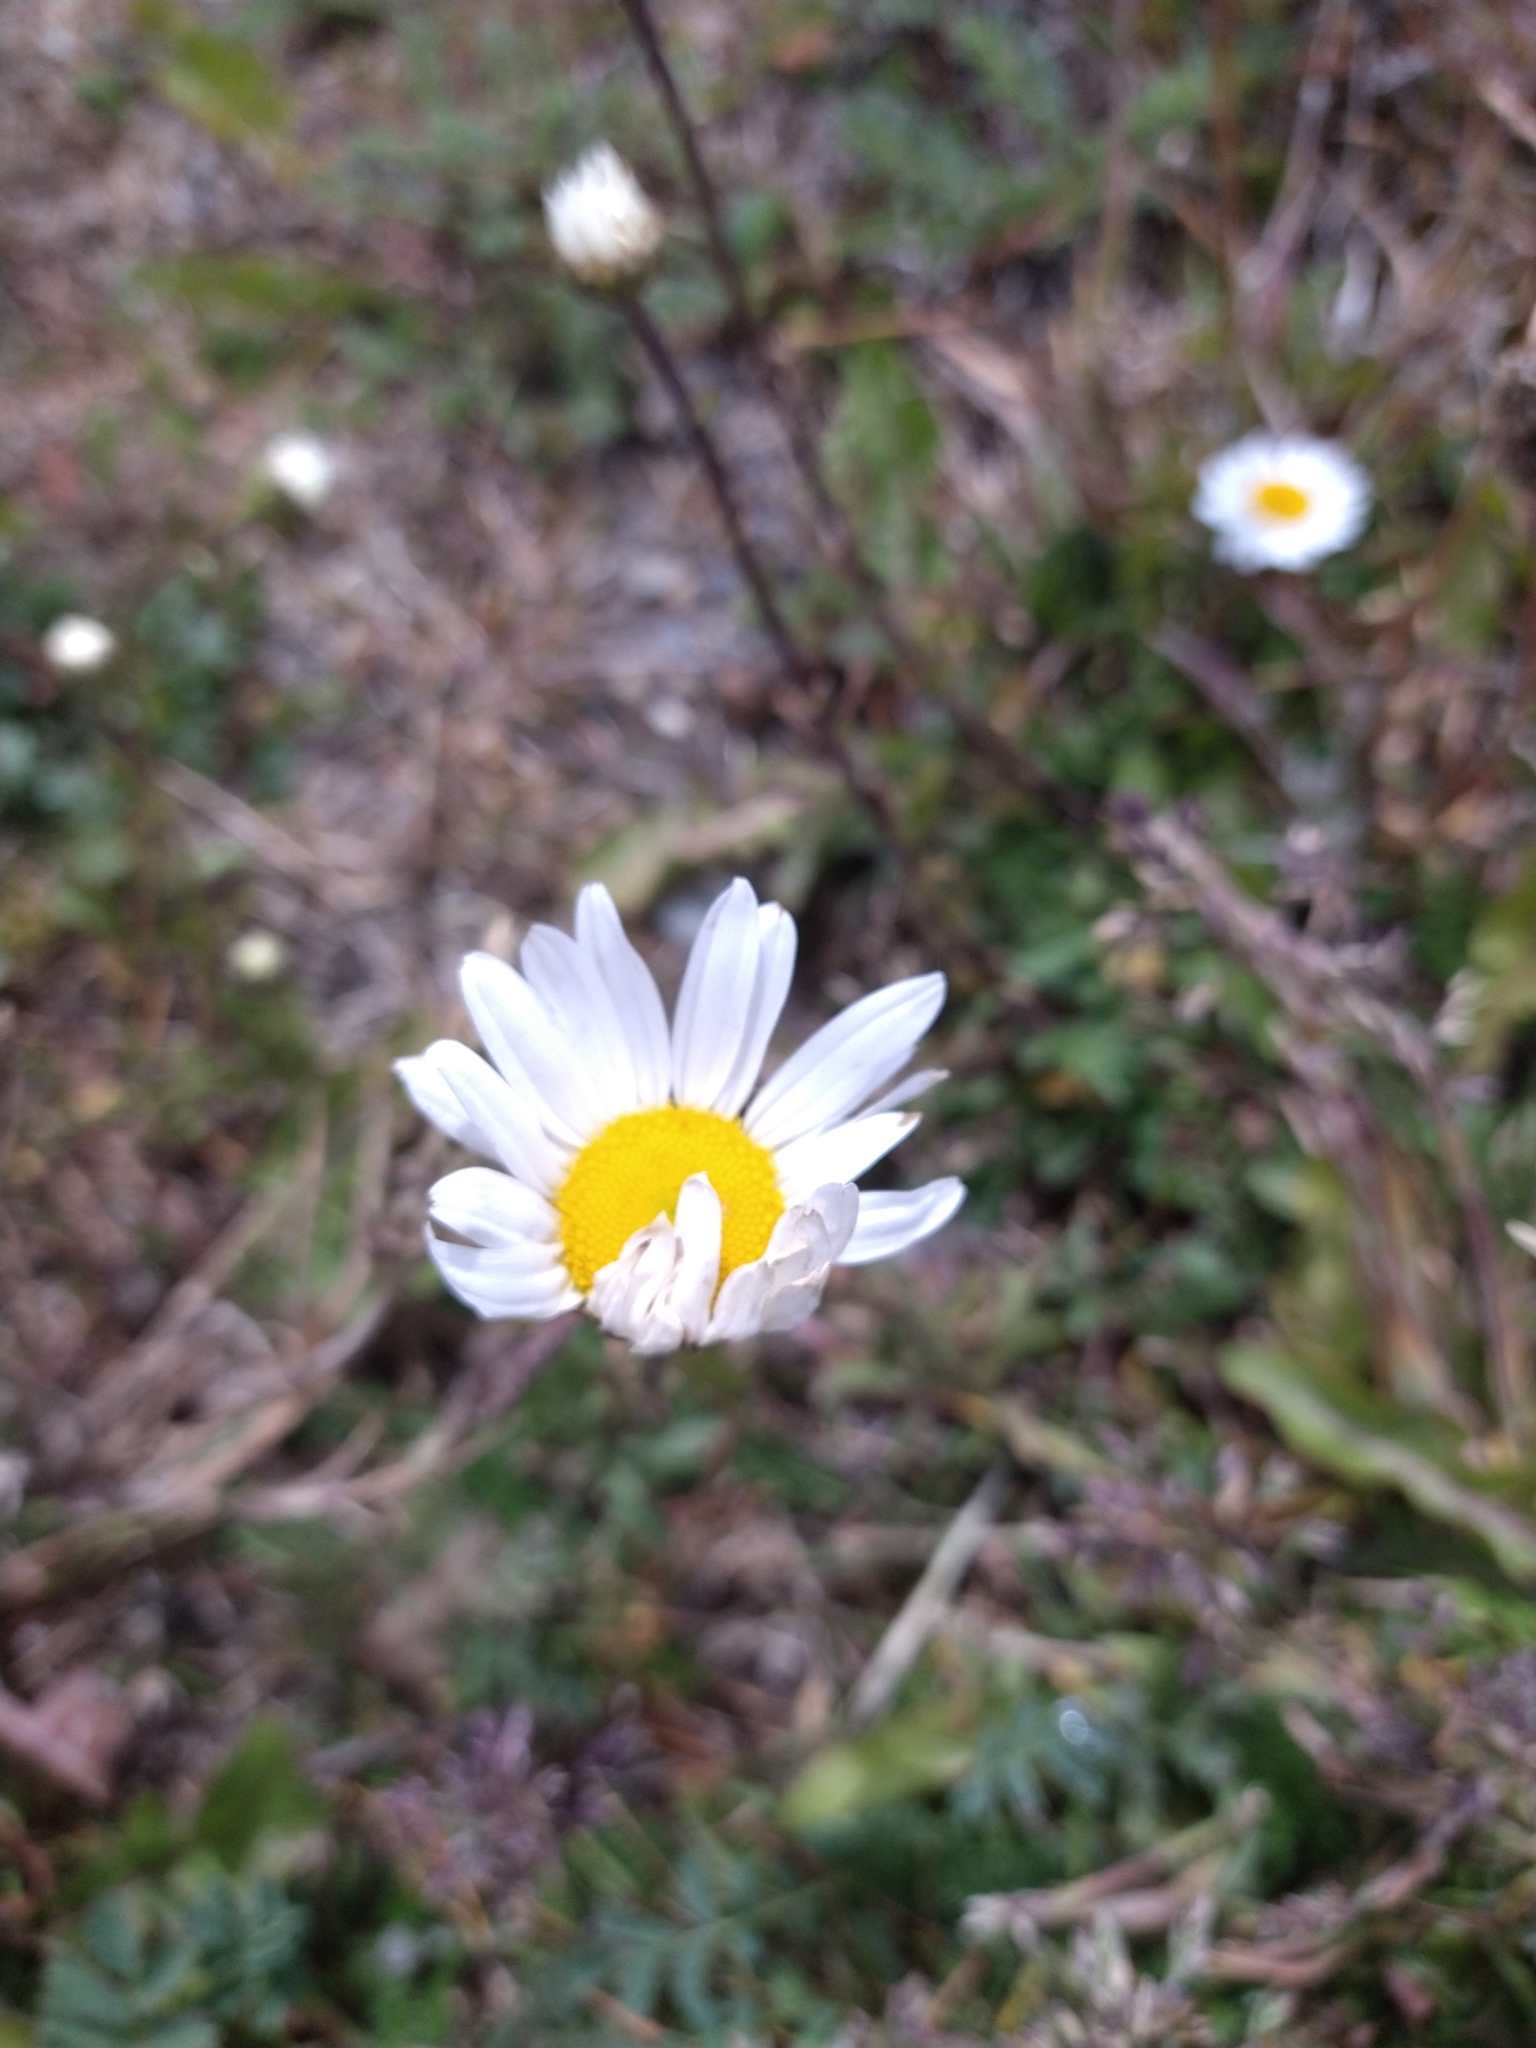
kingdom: Plantae
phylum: Tracheophyta
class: Magnoliopsida
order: Asterales
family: Asteraceae
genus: Leucanthemum
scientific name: Leucanthemum vulgare
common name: Oxeye daisy
